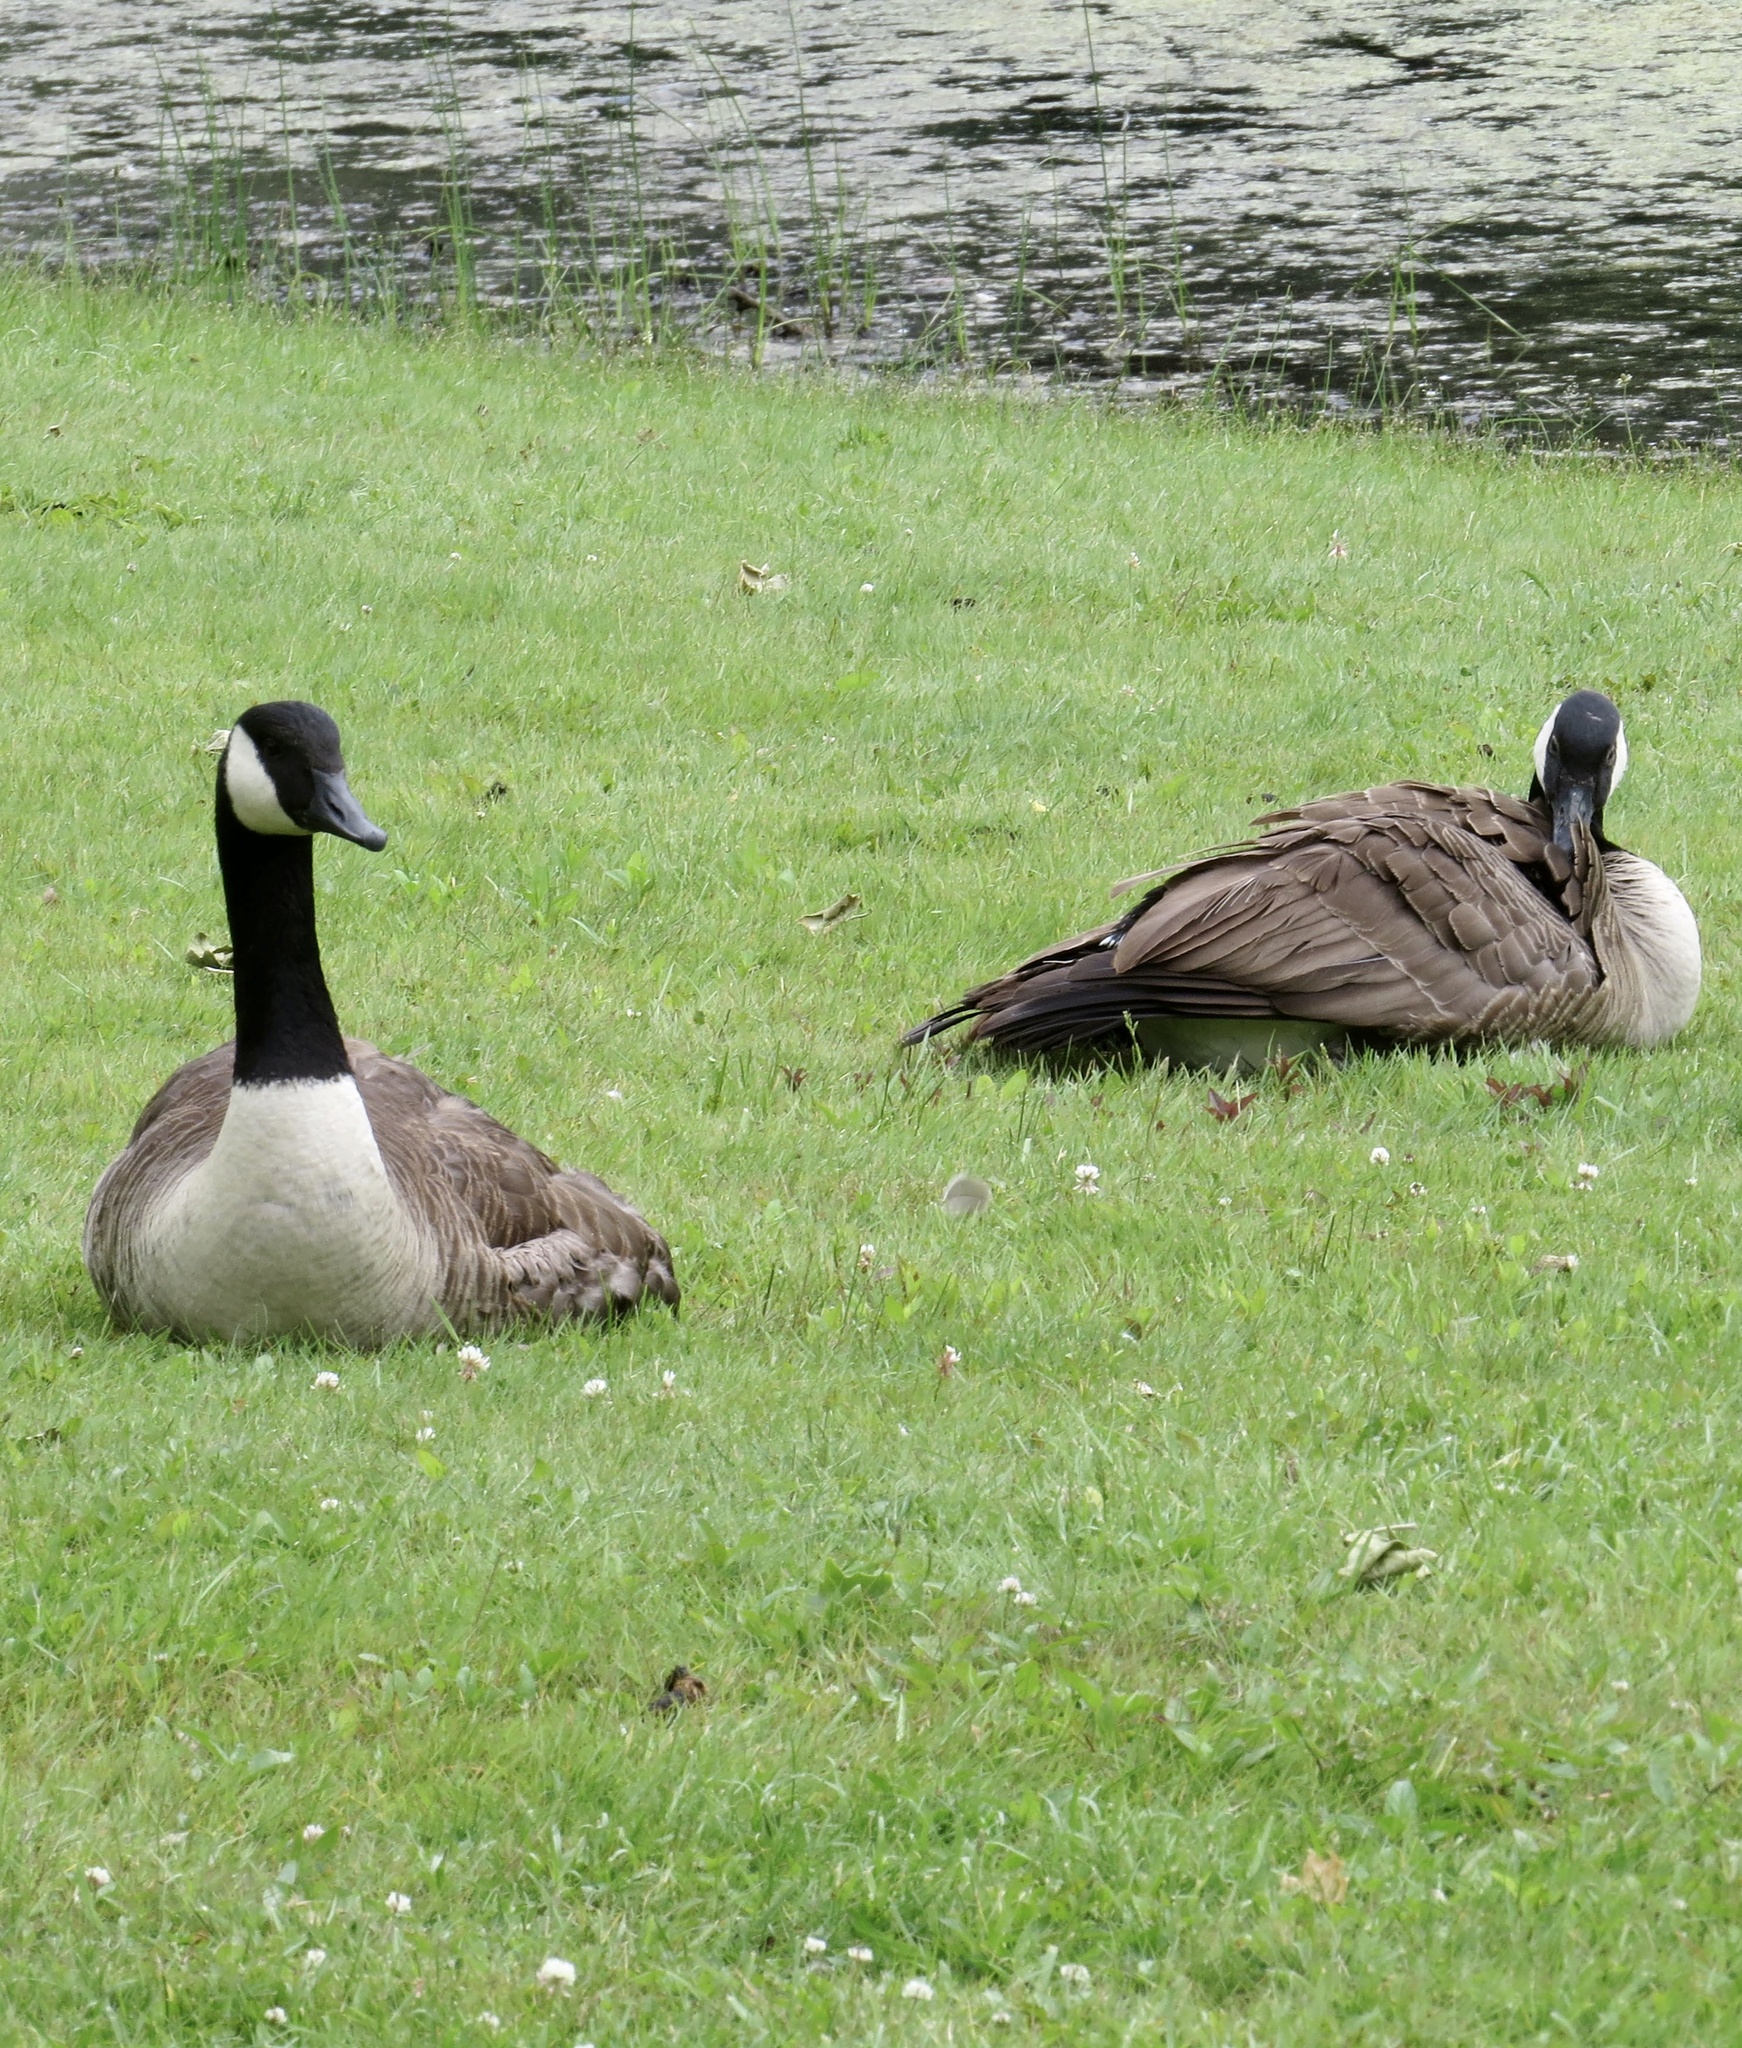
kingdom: Animalia
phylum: Chordata
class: Aves
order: Anseriformes
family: Anatidae
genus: Branta
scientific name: Branta canadensis
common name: Canada goose
